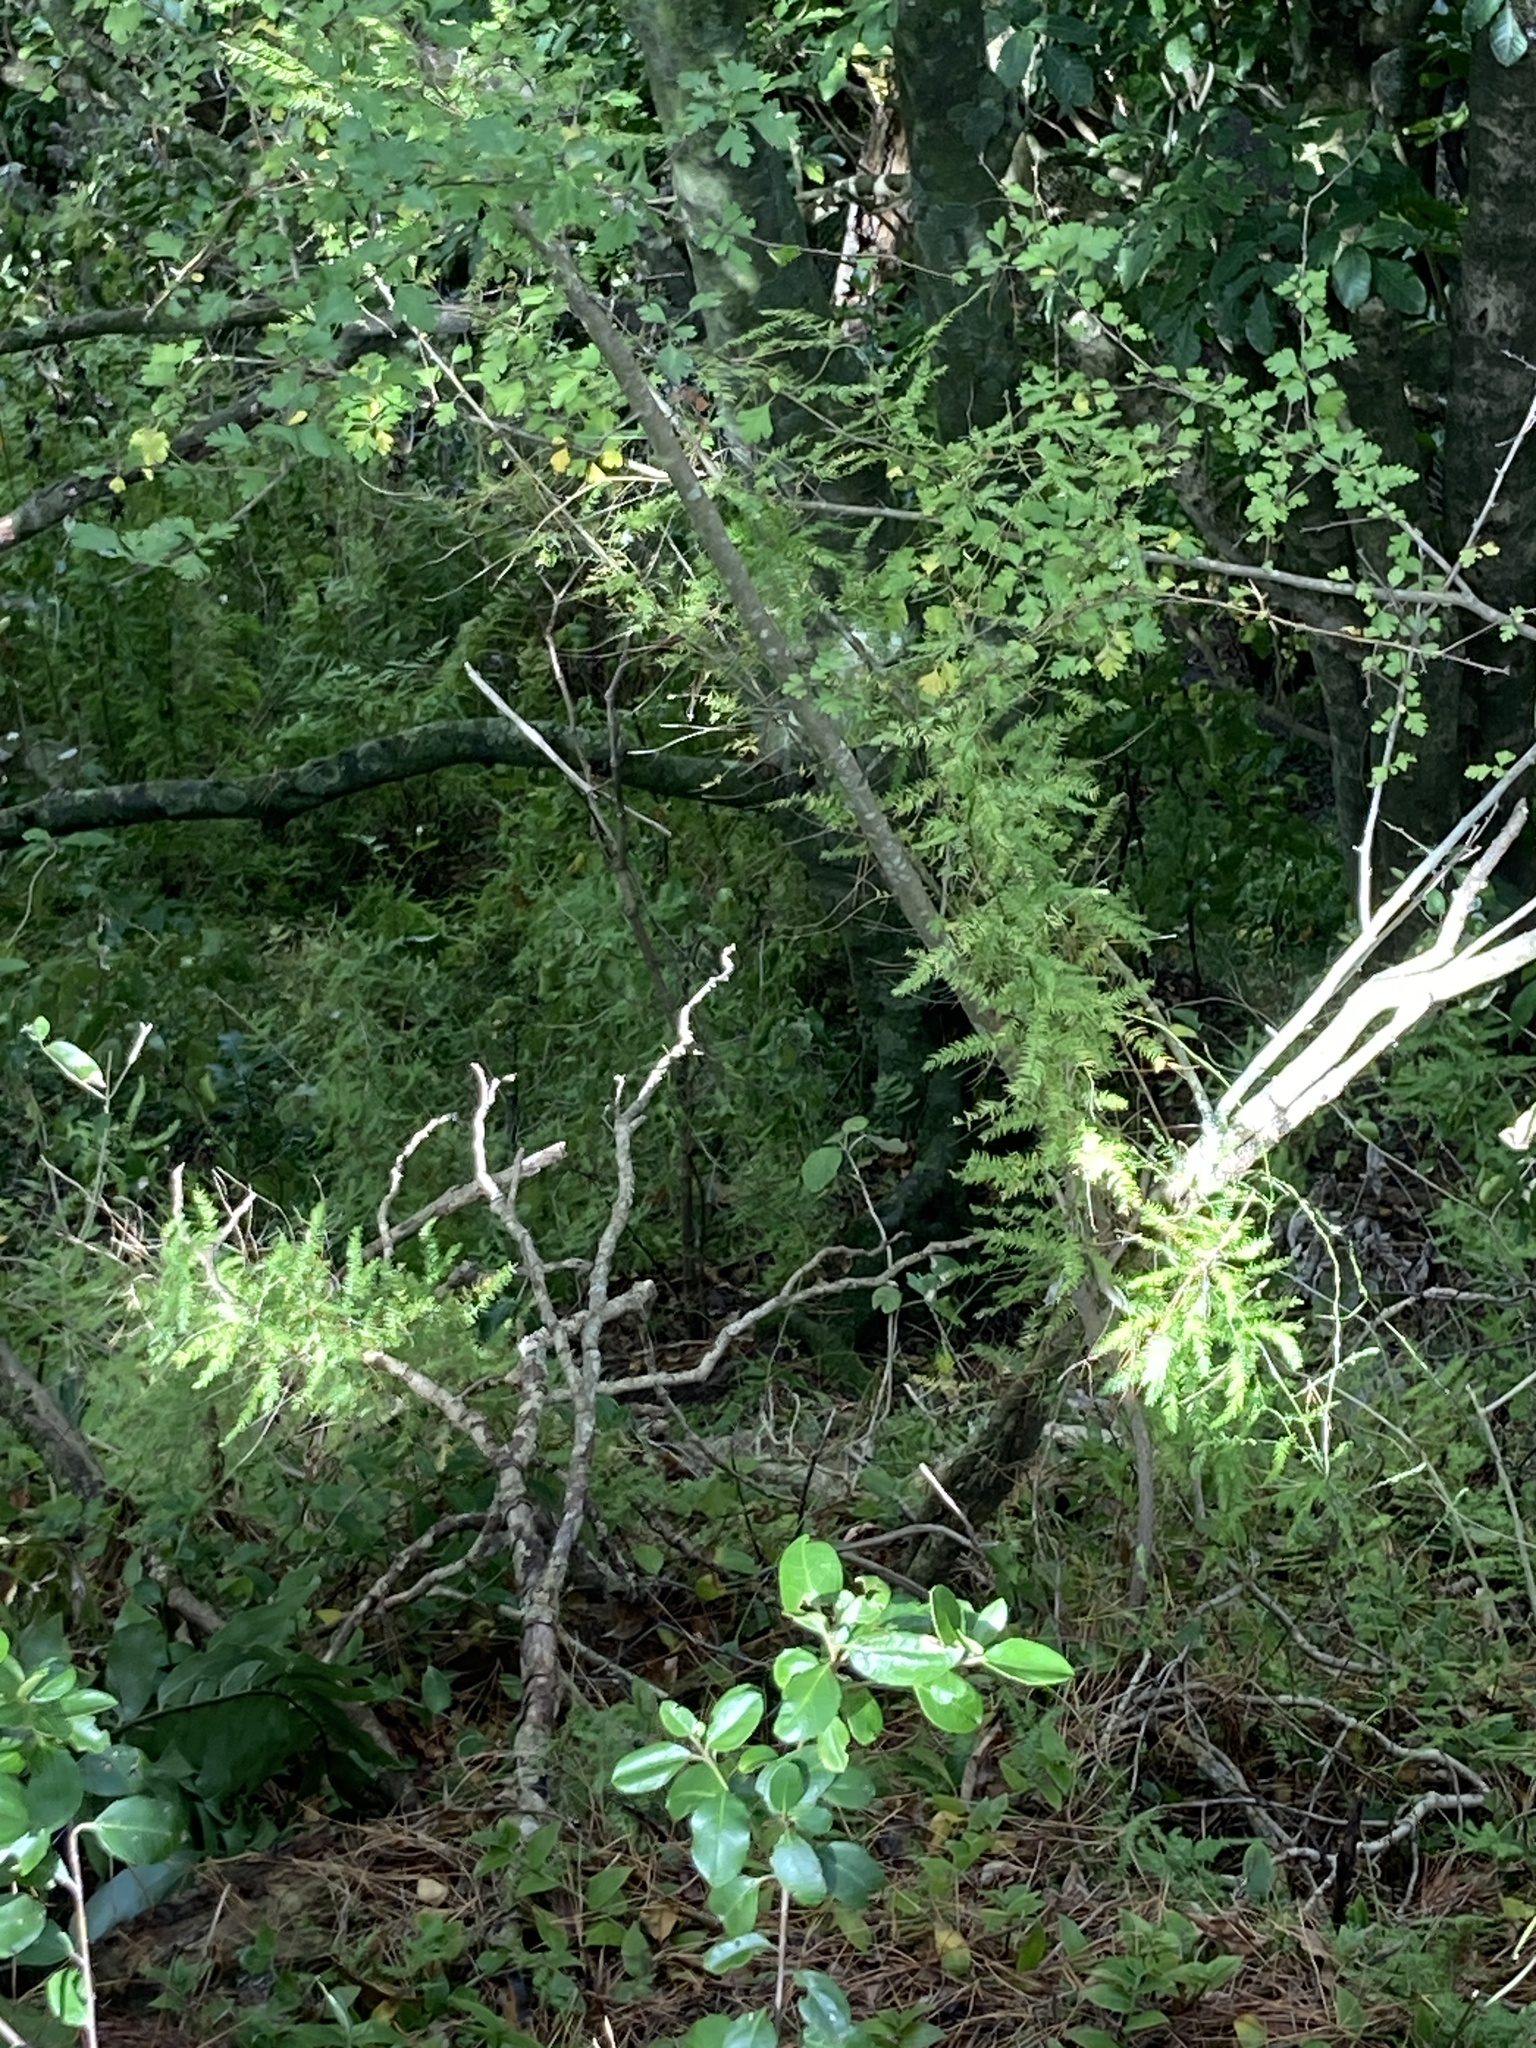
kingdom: Plantae
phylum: Tracheophyta
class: Liliopsida
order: Asparagales
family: Asparagaceae
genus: Asparagus
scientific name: Asparagus scandens
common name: Asparagus-fern
